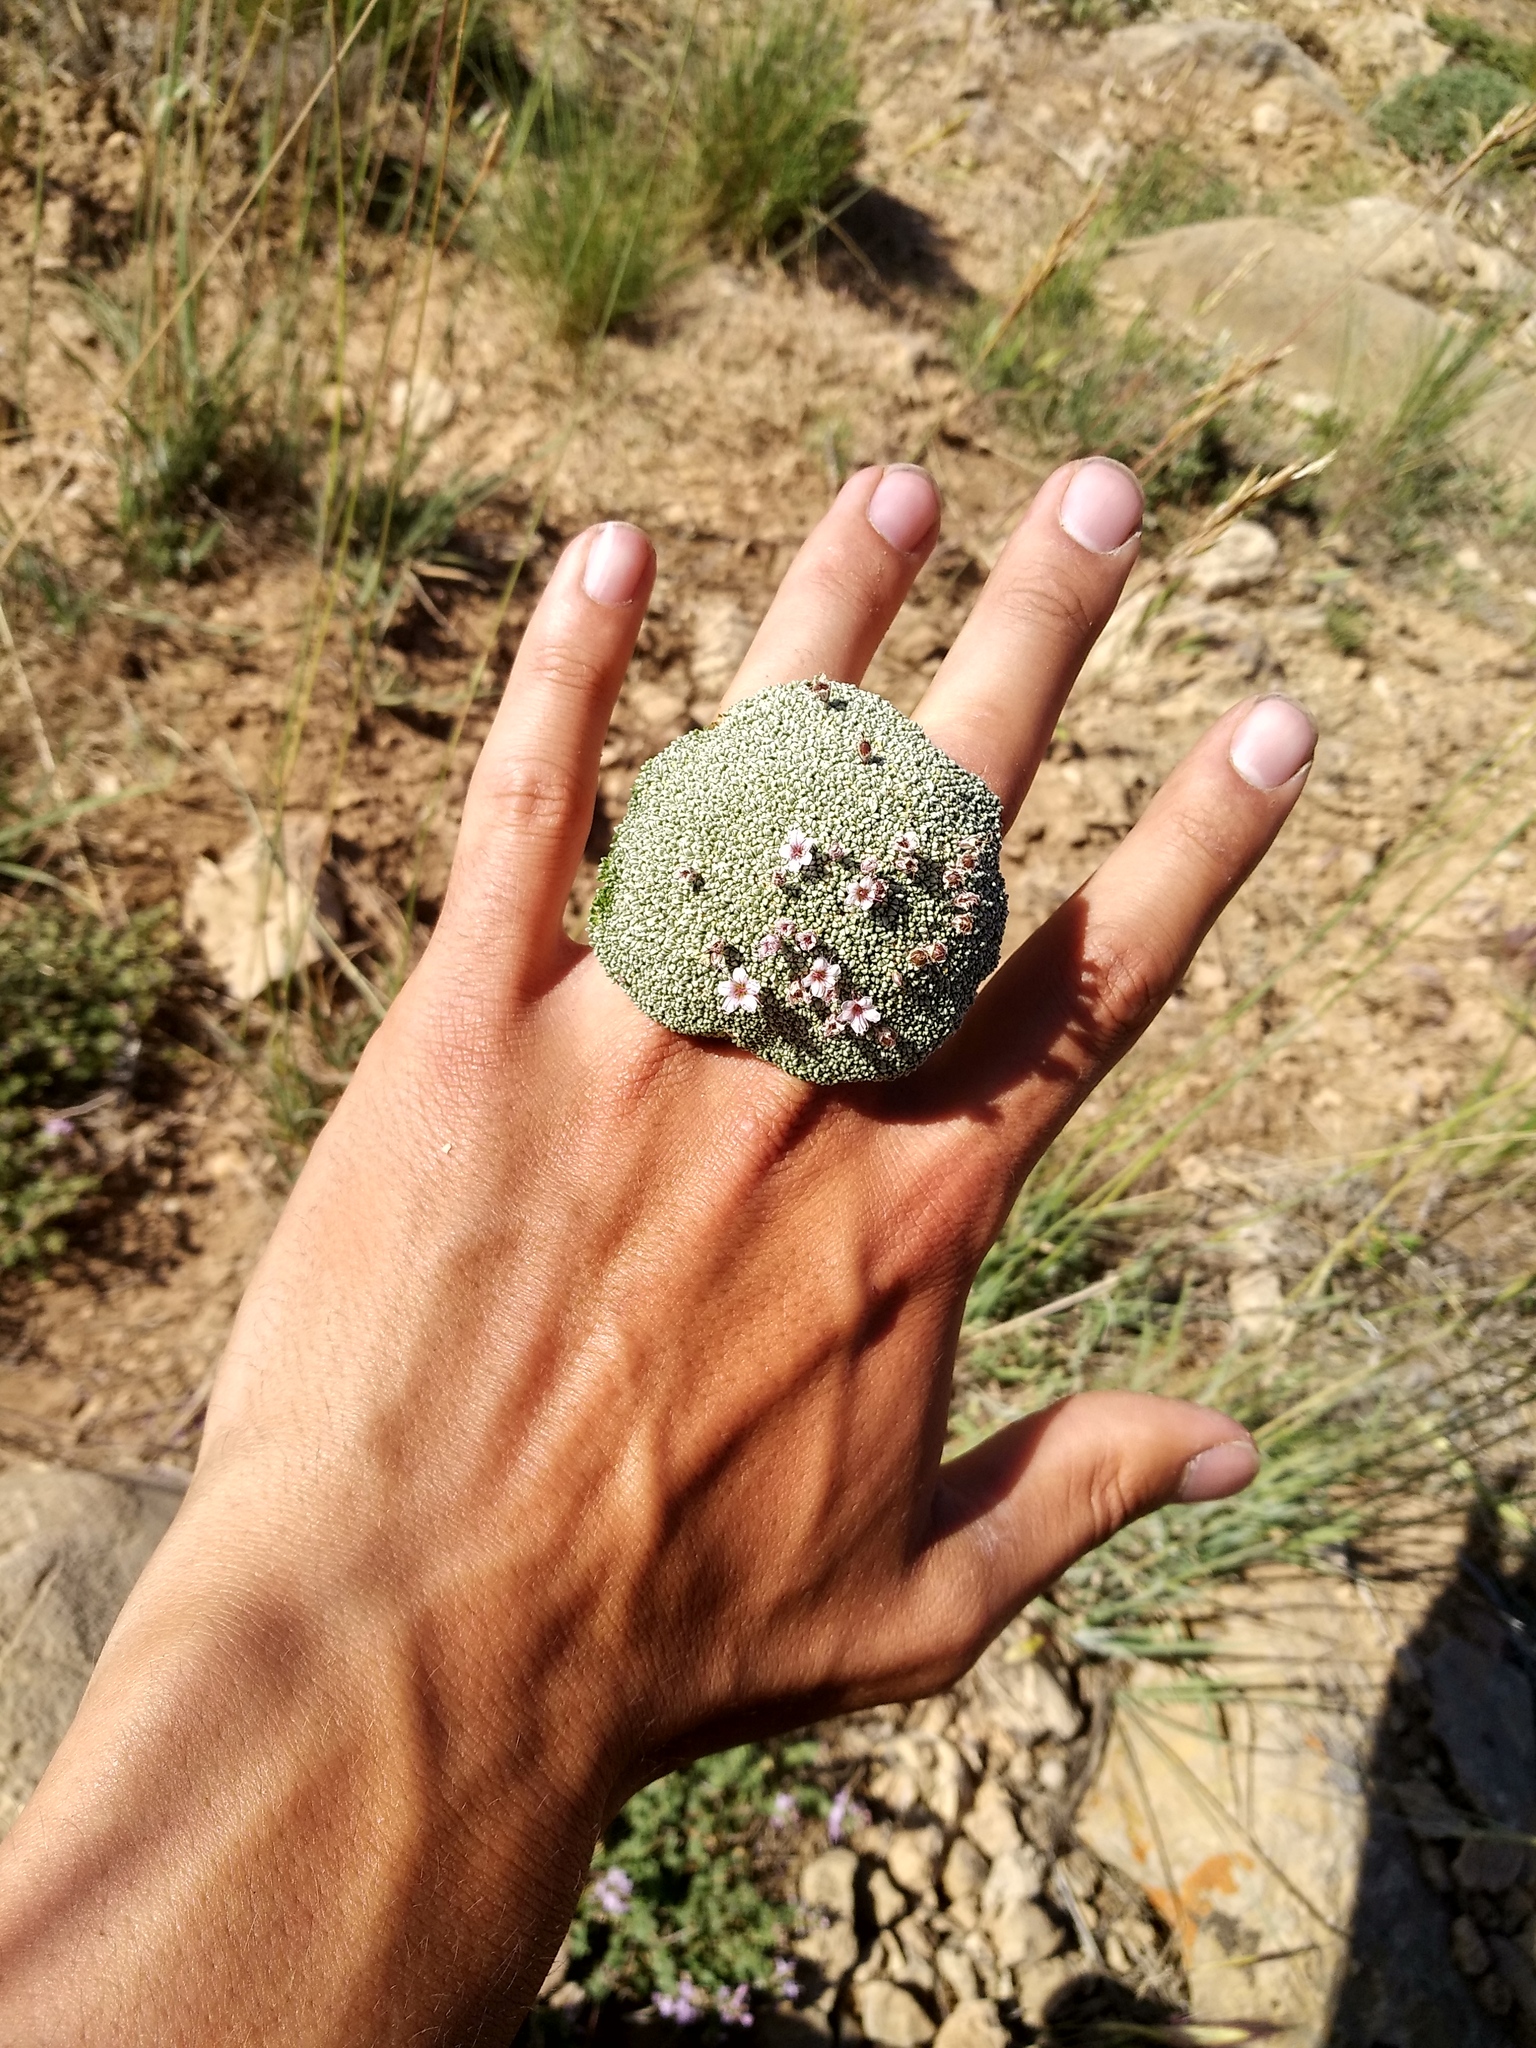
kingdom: Plantae
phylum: Tracheophyta
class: Magnoliopsida
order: Caryophyllales
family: Caryophyllaceae
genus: Gypsophila
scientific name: Gypsophila aretioides
